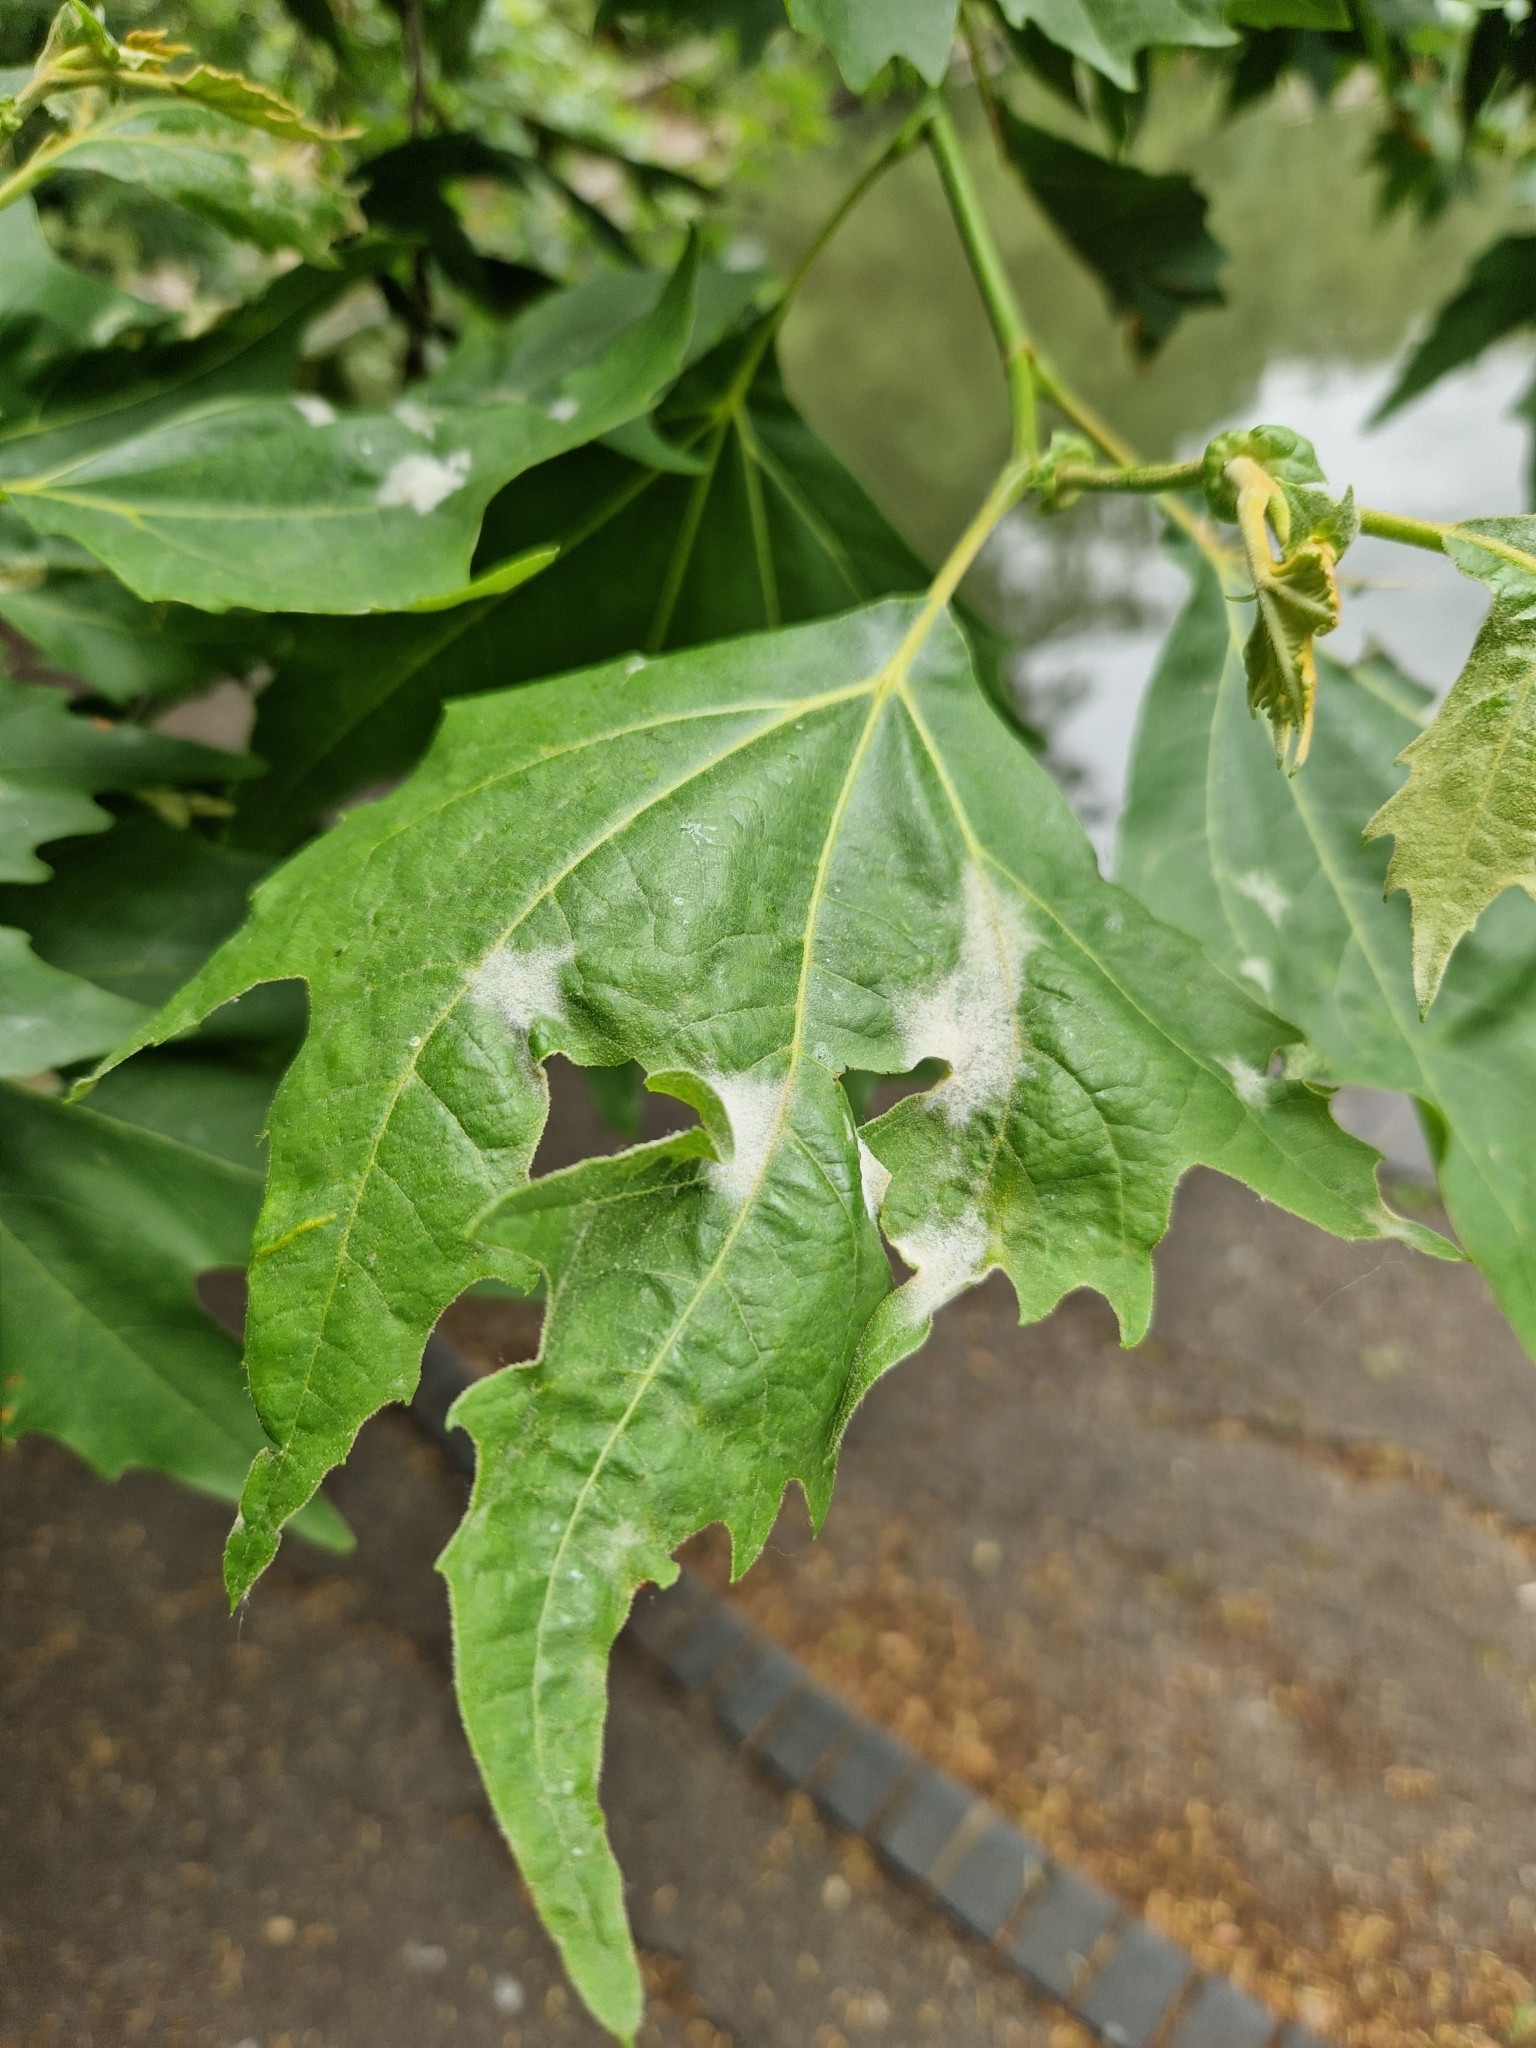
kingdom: Fungi
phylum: Ascomycota
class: Leotiomycetes
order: Helotiales
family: Erysiphaceae
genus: Erysiphe
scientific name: Erysiphe platani
